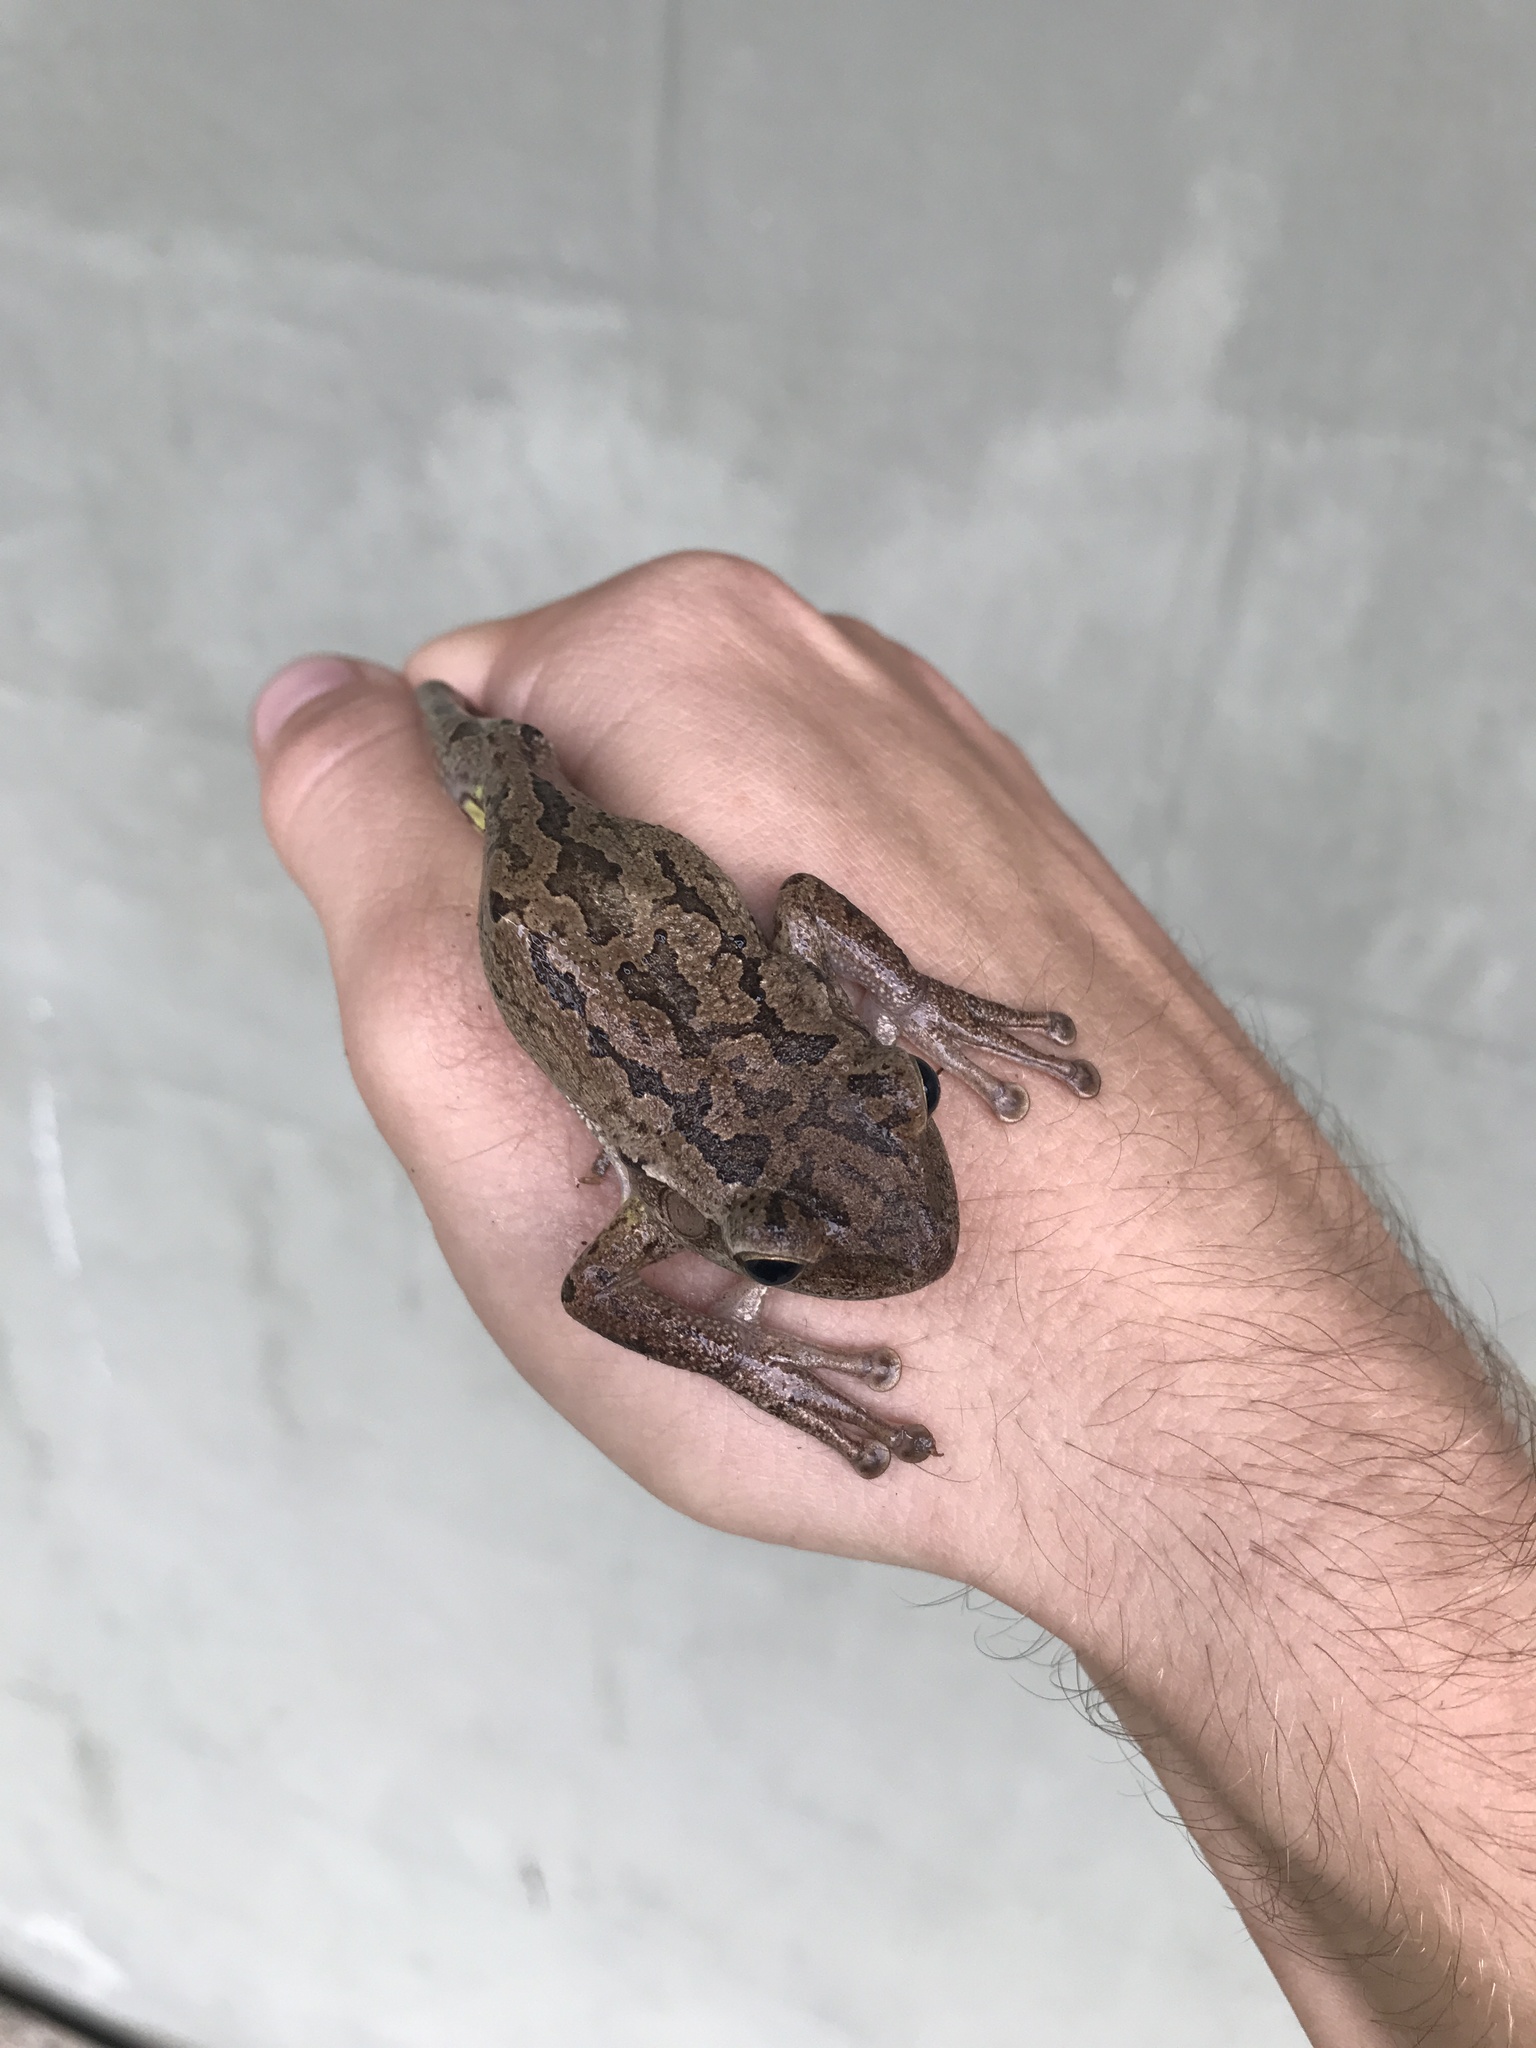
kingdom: Animalia
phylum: Chordata
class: Amphibia
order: Anura
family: Hylidae
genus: Osteopilus
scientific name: Osteopilus septentrionalis
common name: Cuban treefrog
